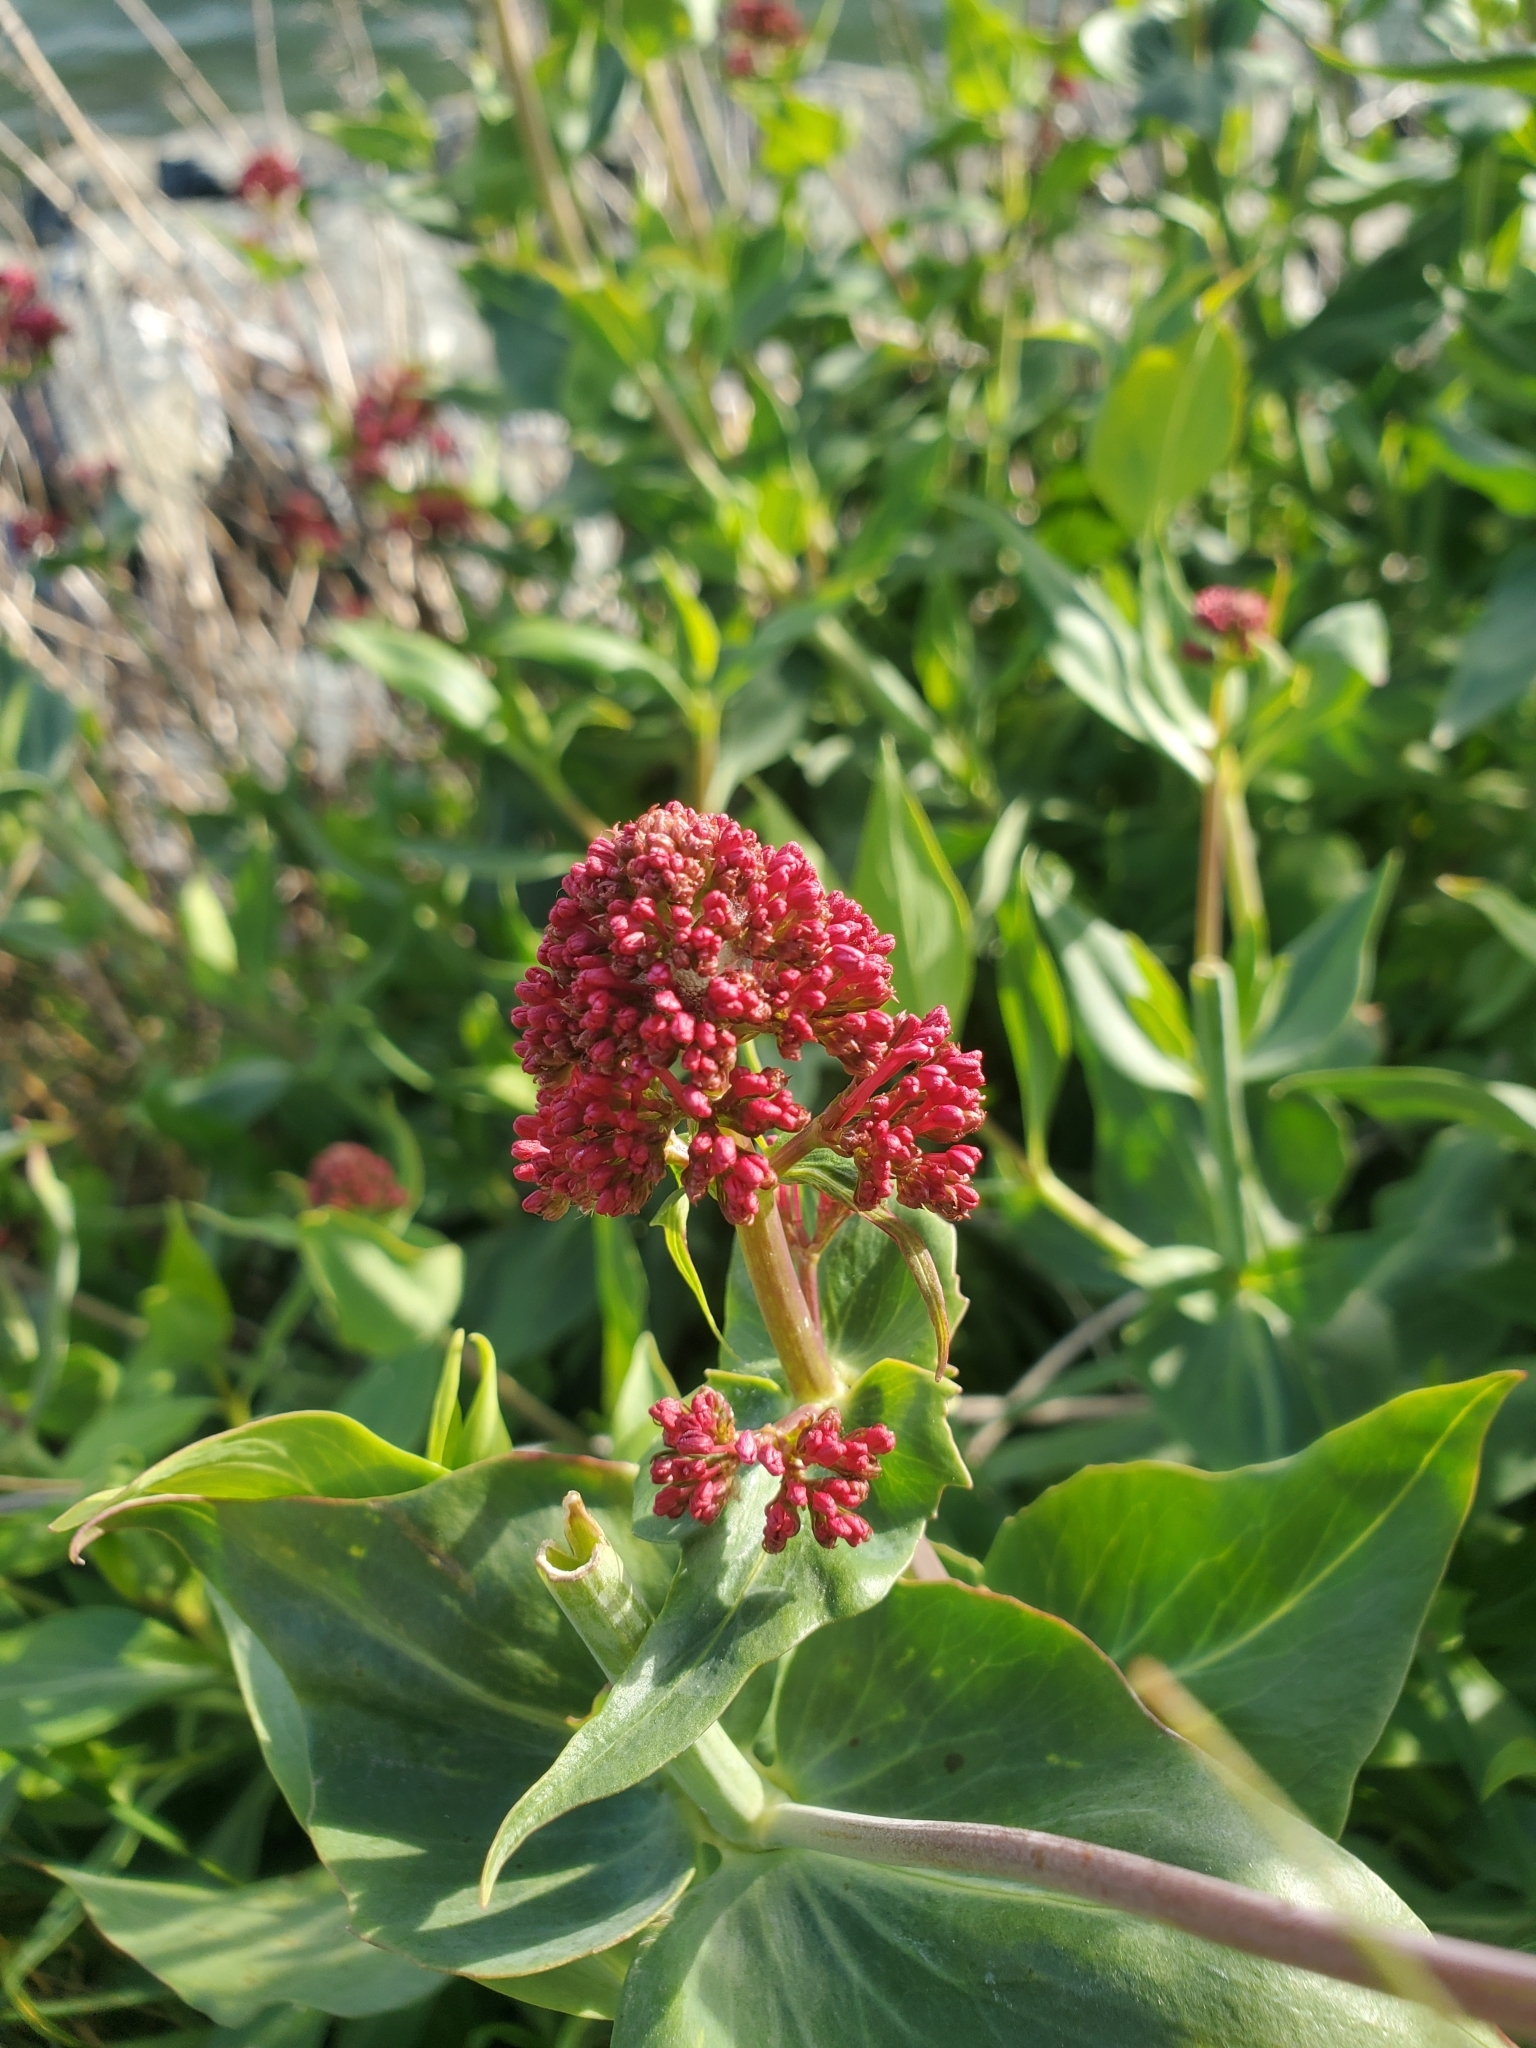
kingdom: Plantae
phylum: Tracheophyta
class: Magnoliopsida
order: Dipsacales
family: Caprifoliaceae
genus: Centranthus
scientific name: Centranthus ruber
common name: Red valerian
